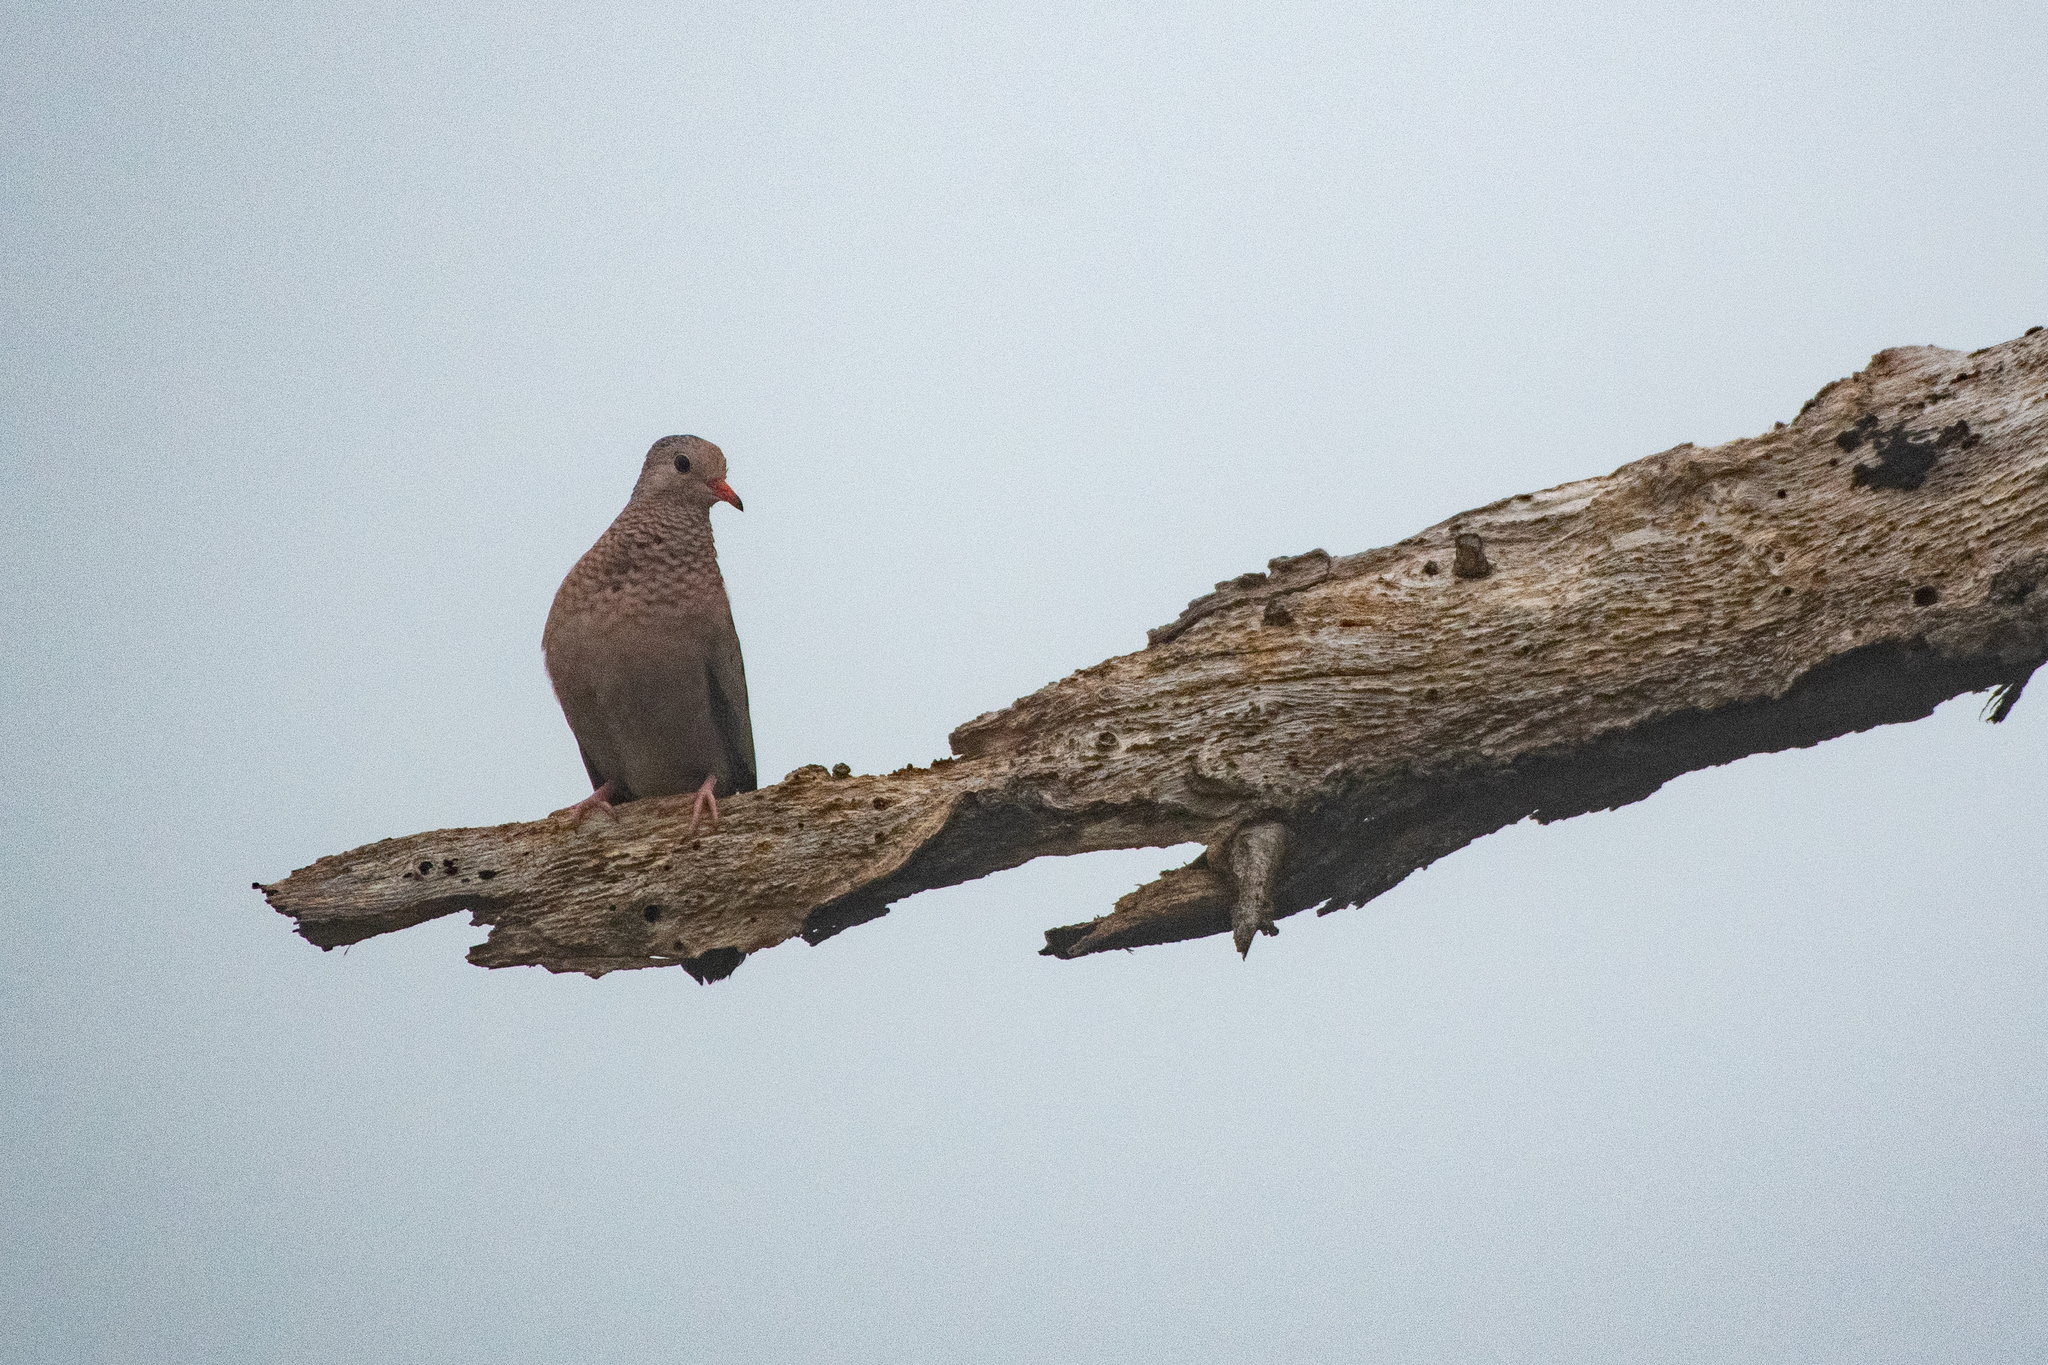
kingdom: Animalia
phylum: Chordata
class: Aves
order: Columbiformes
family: Columbidae
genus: Columbina
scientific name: Columbina passerina
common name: Common ground-dove
